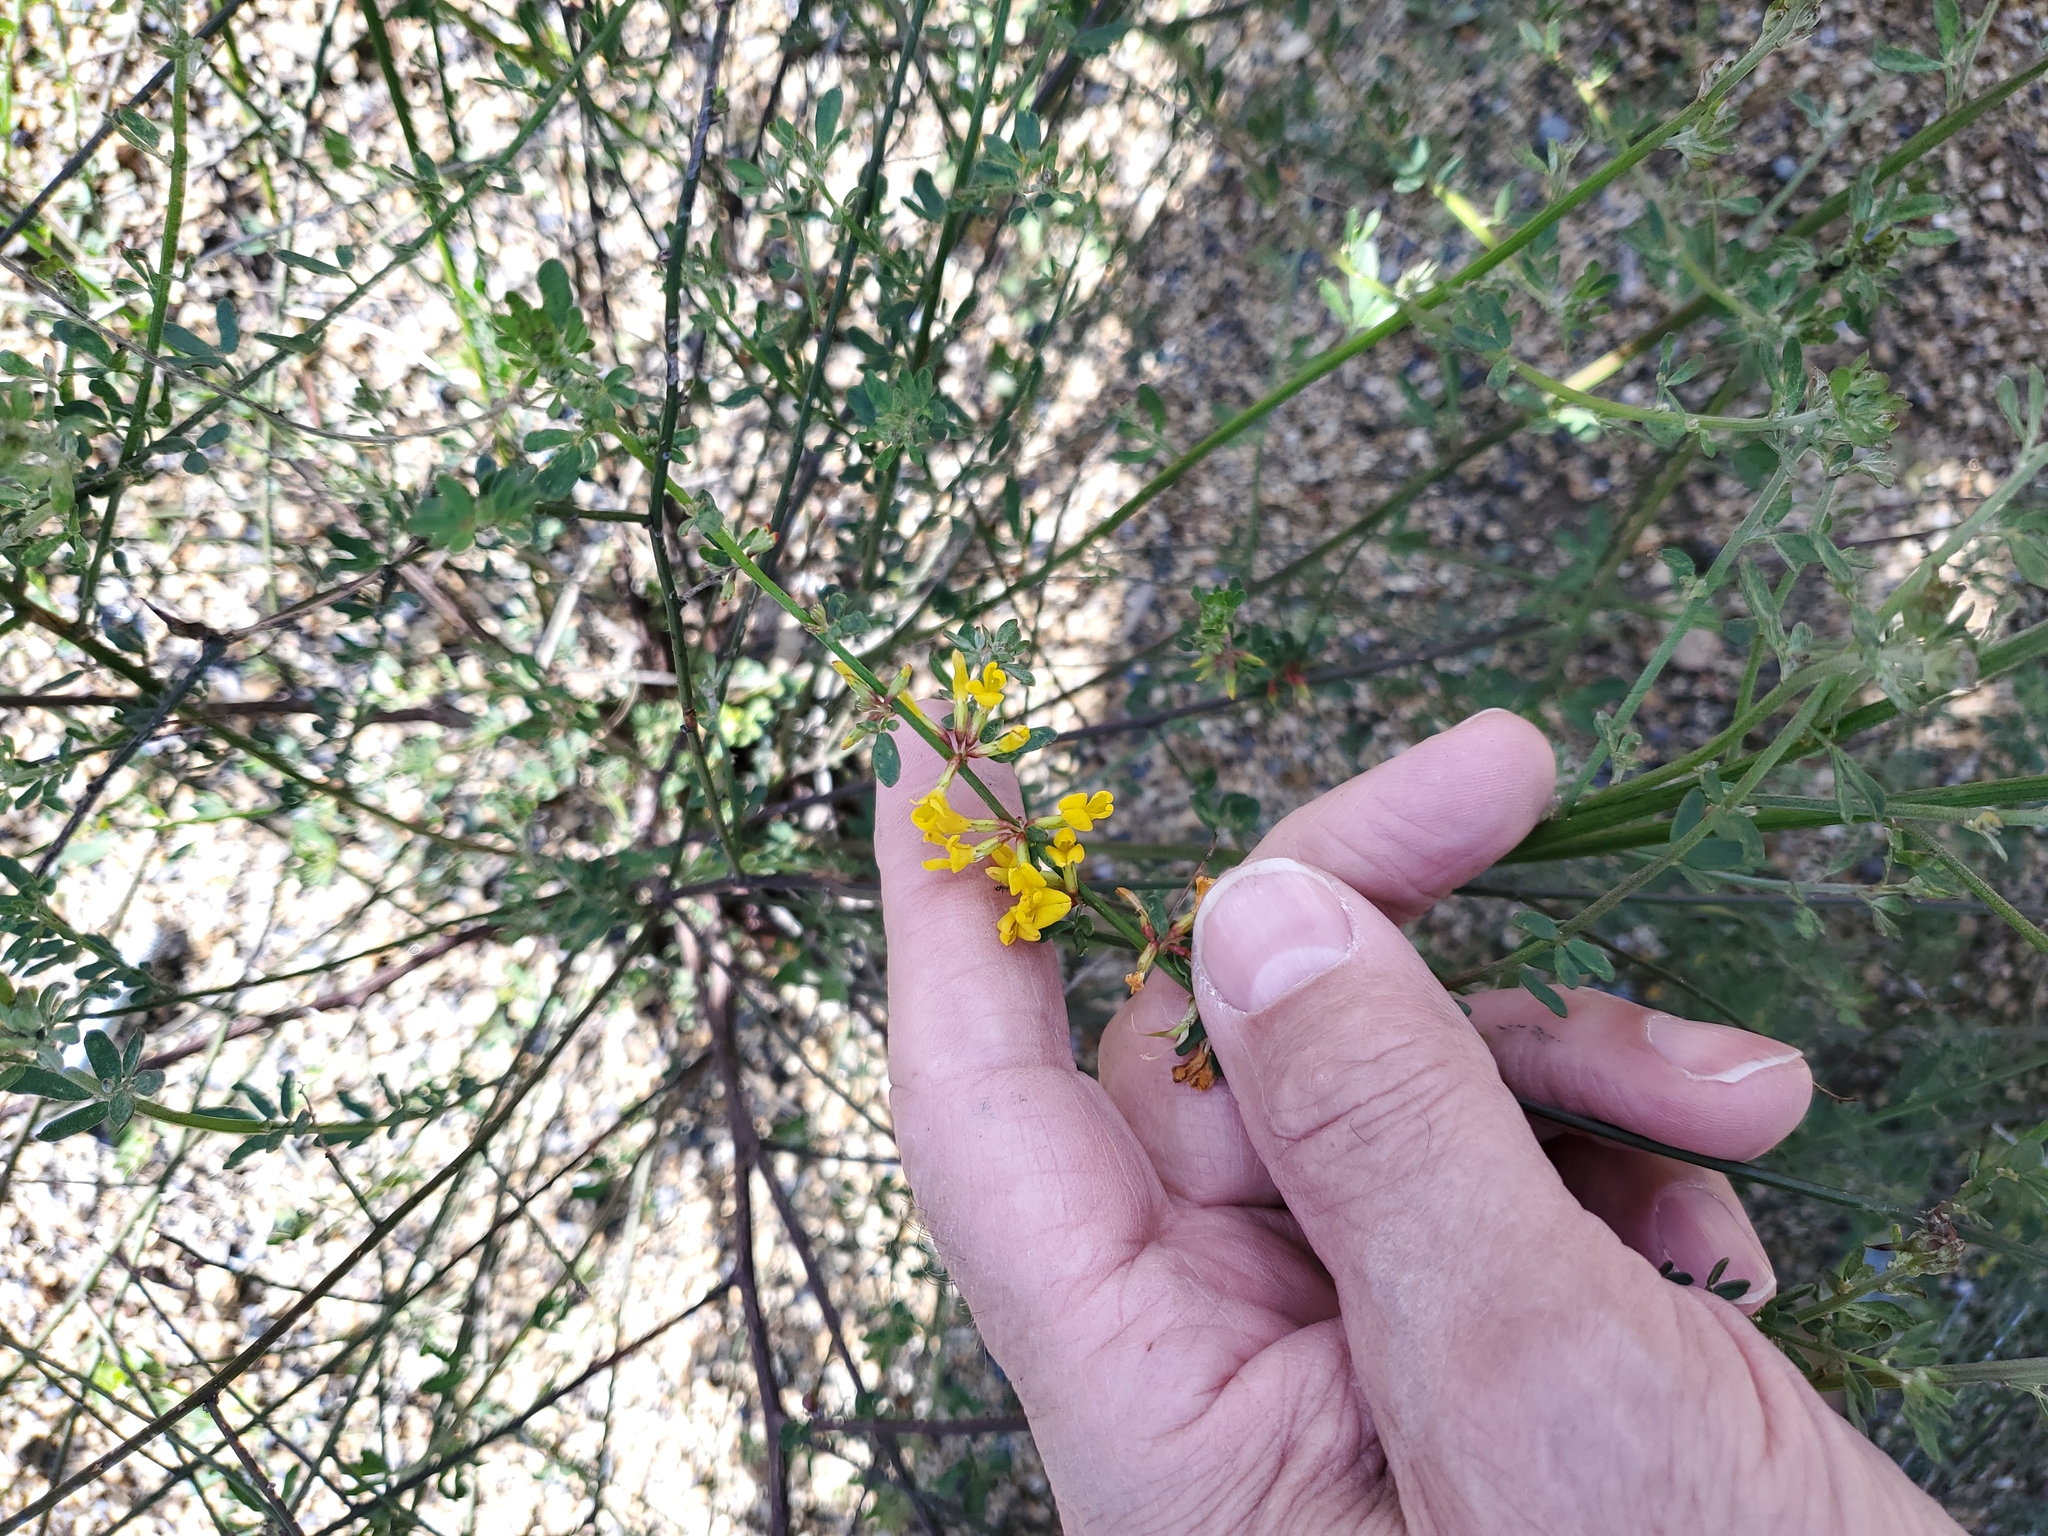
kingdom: Plantae
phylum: Tracheophyta
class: Magnoliopsida
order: Fabales
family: Fabaceae
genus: Acmispon
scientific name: Acmispon glaber
